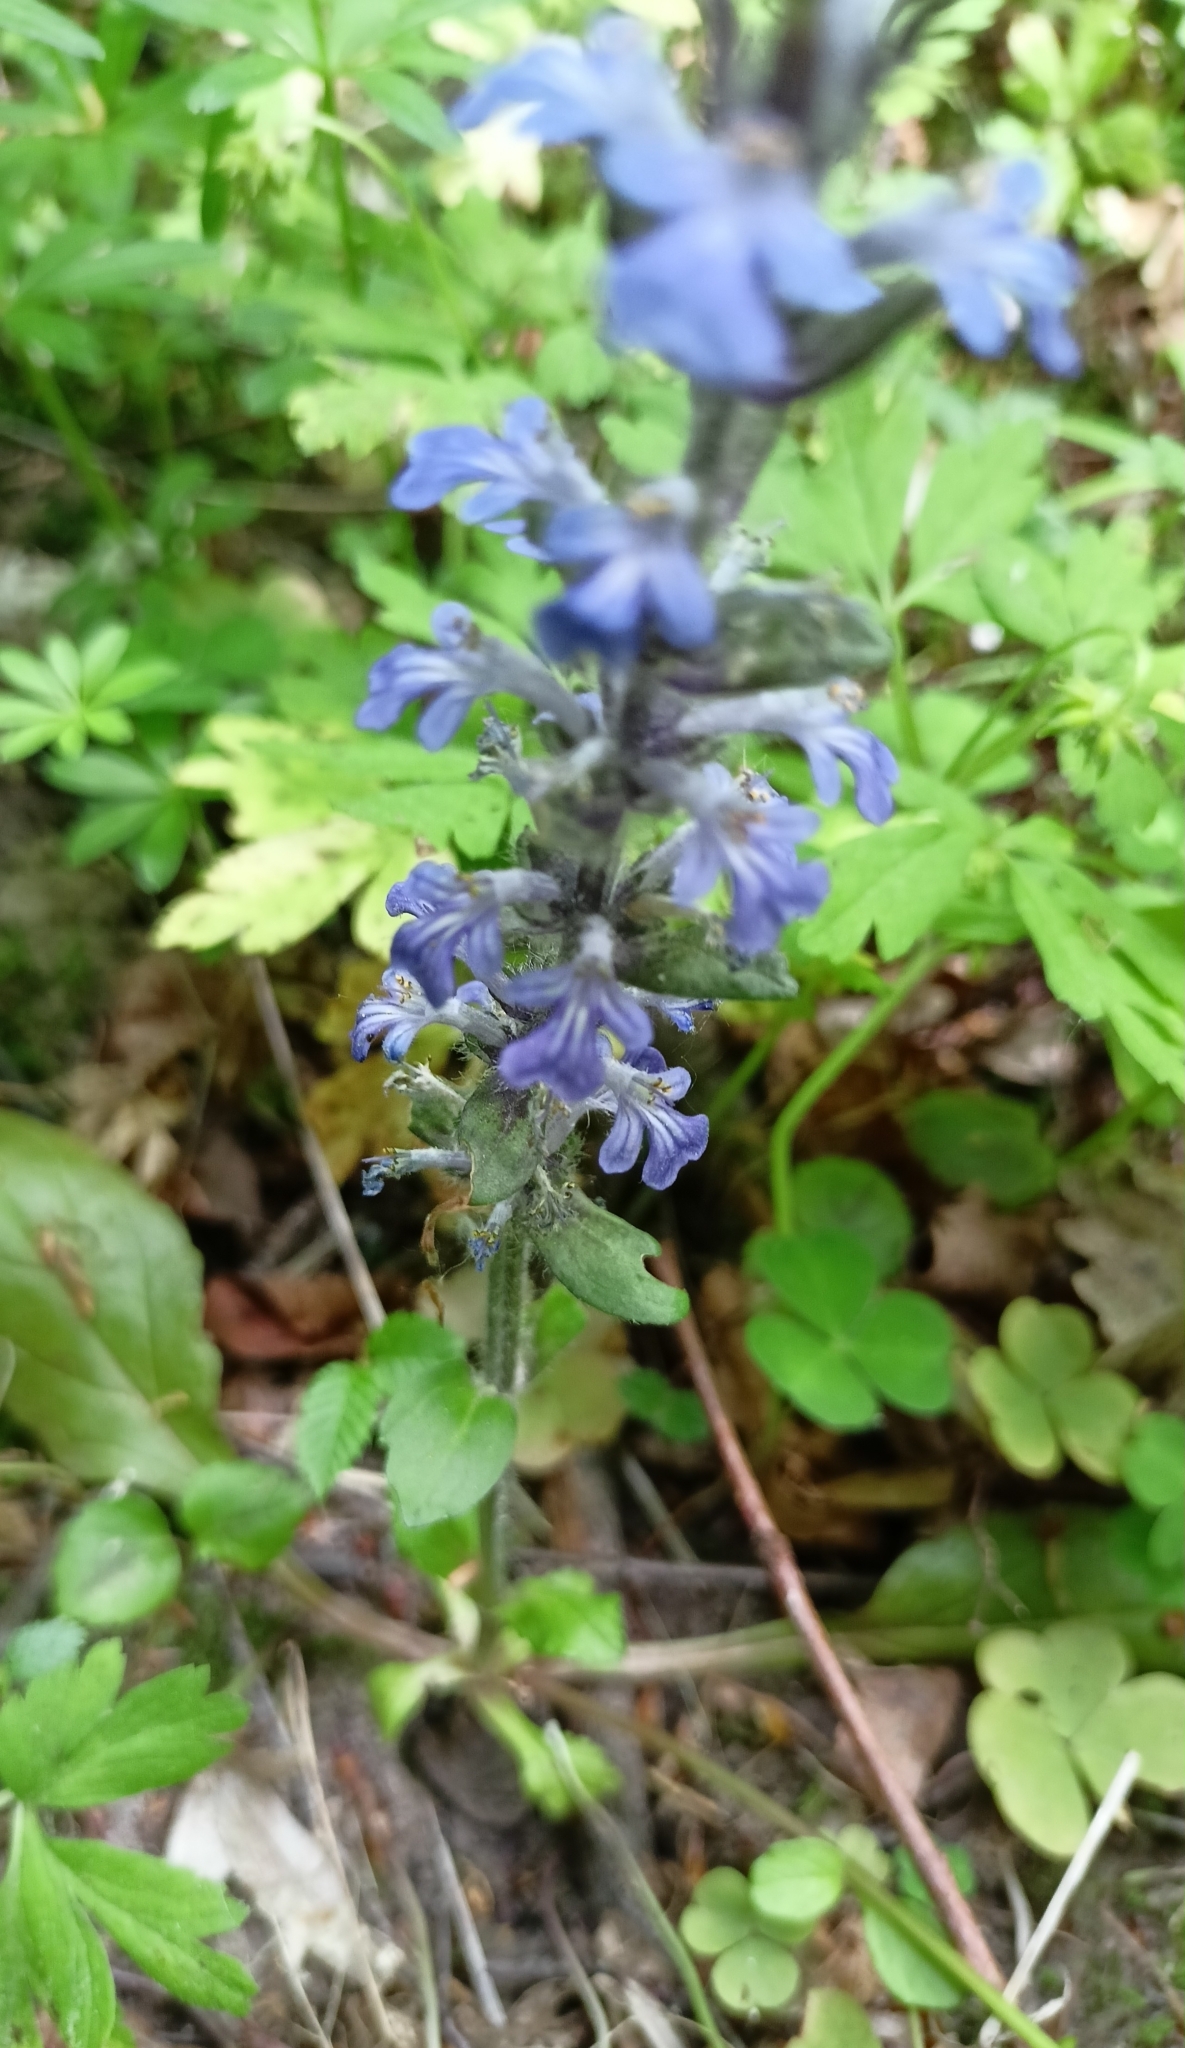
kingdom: Plantae
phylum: Tracheophyta
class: Magnoliopsida
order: Lamiales
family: Lamiaceae
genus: Ajuga
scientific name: Ajuga reptans
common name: Bugle
